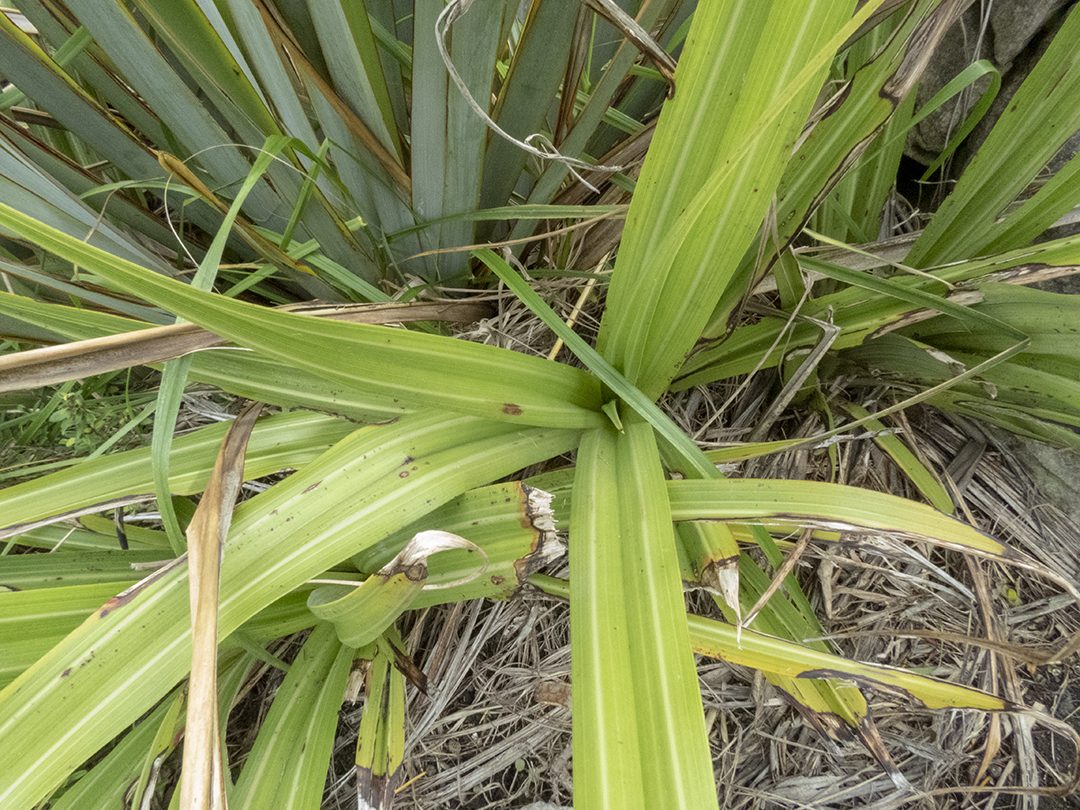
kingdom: Plantae
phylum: Tracheophyta
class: Liliopsida
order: Asparagales
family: Asteliaceae
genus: Astelia
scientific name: Astelia fragrans
